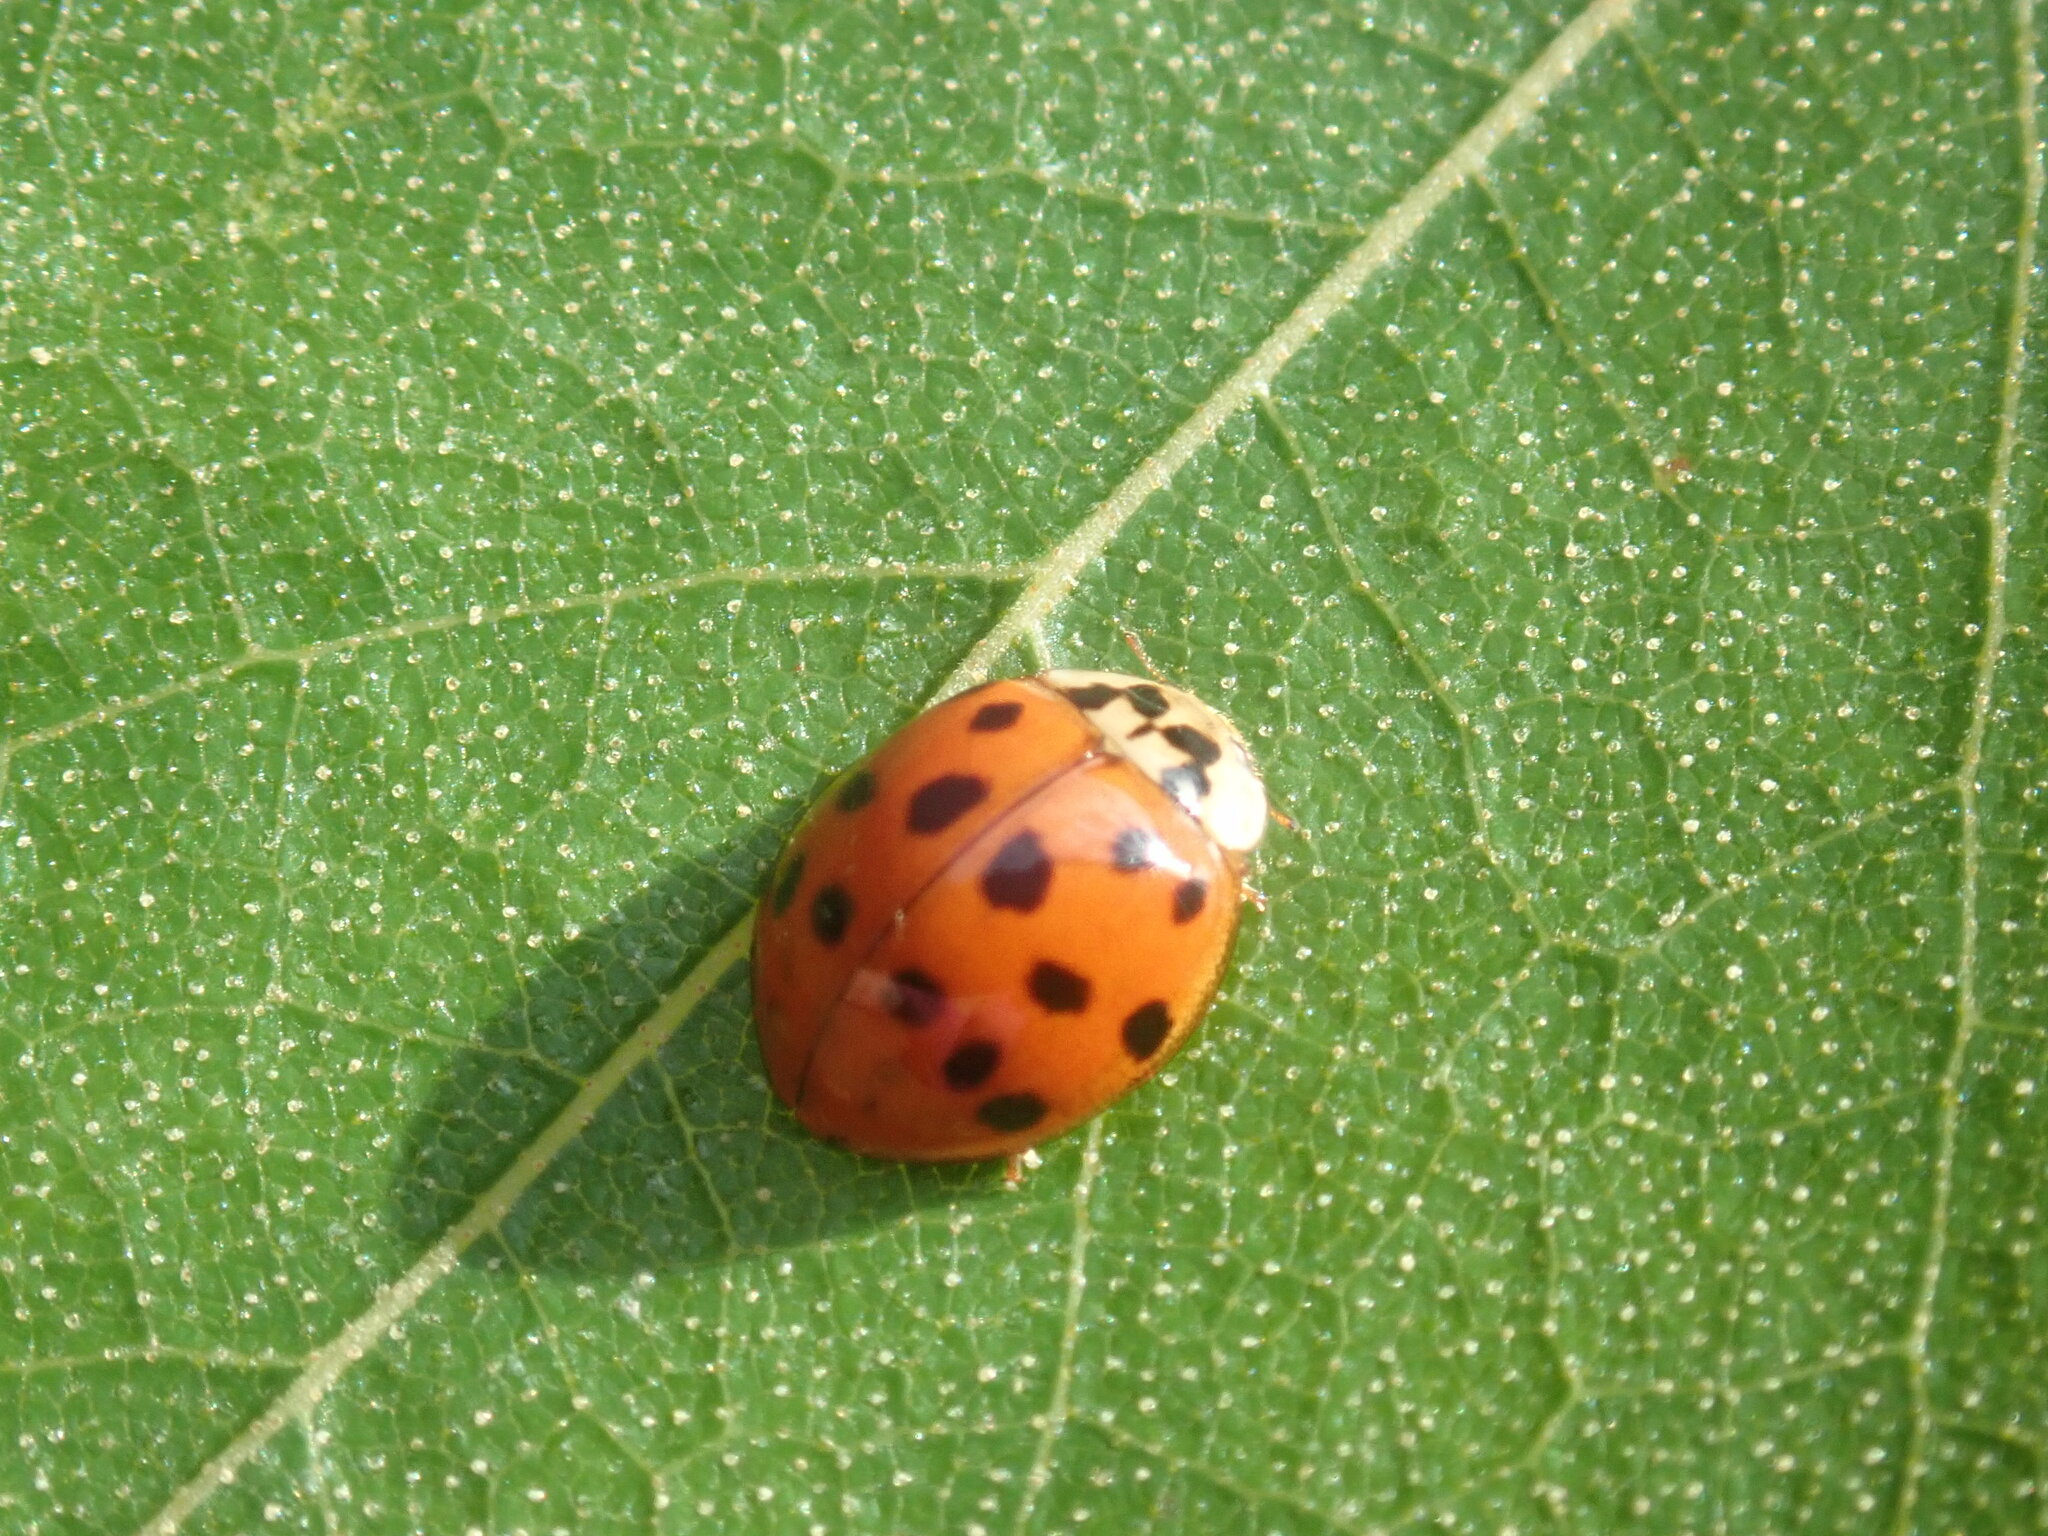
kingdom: Animalia
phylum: Arthropoda
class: Insecta
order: Coleoptera
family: Coccinellidae
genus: Harmonia
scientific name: Harmonia axyridis
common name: Harlequin ladybird
